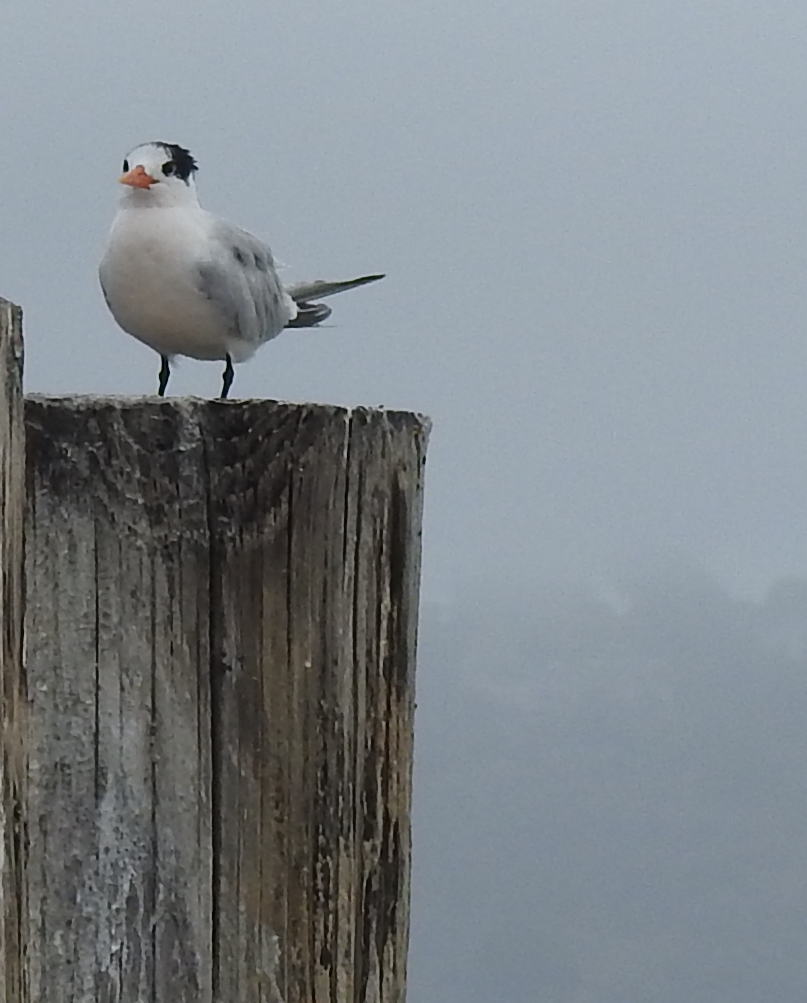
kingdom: Animalia
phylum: Chordata
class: Aves
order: Charadriiformes
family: Laridae
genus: Thalasseus
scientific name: Thalasseus elegans
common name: Elegant tern
